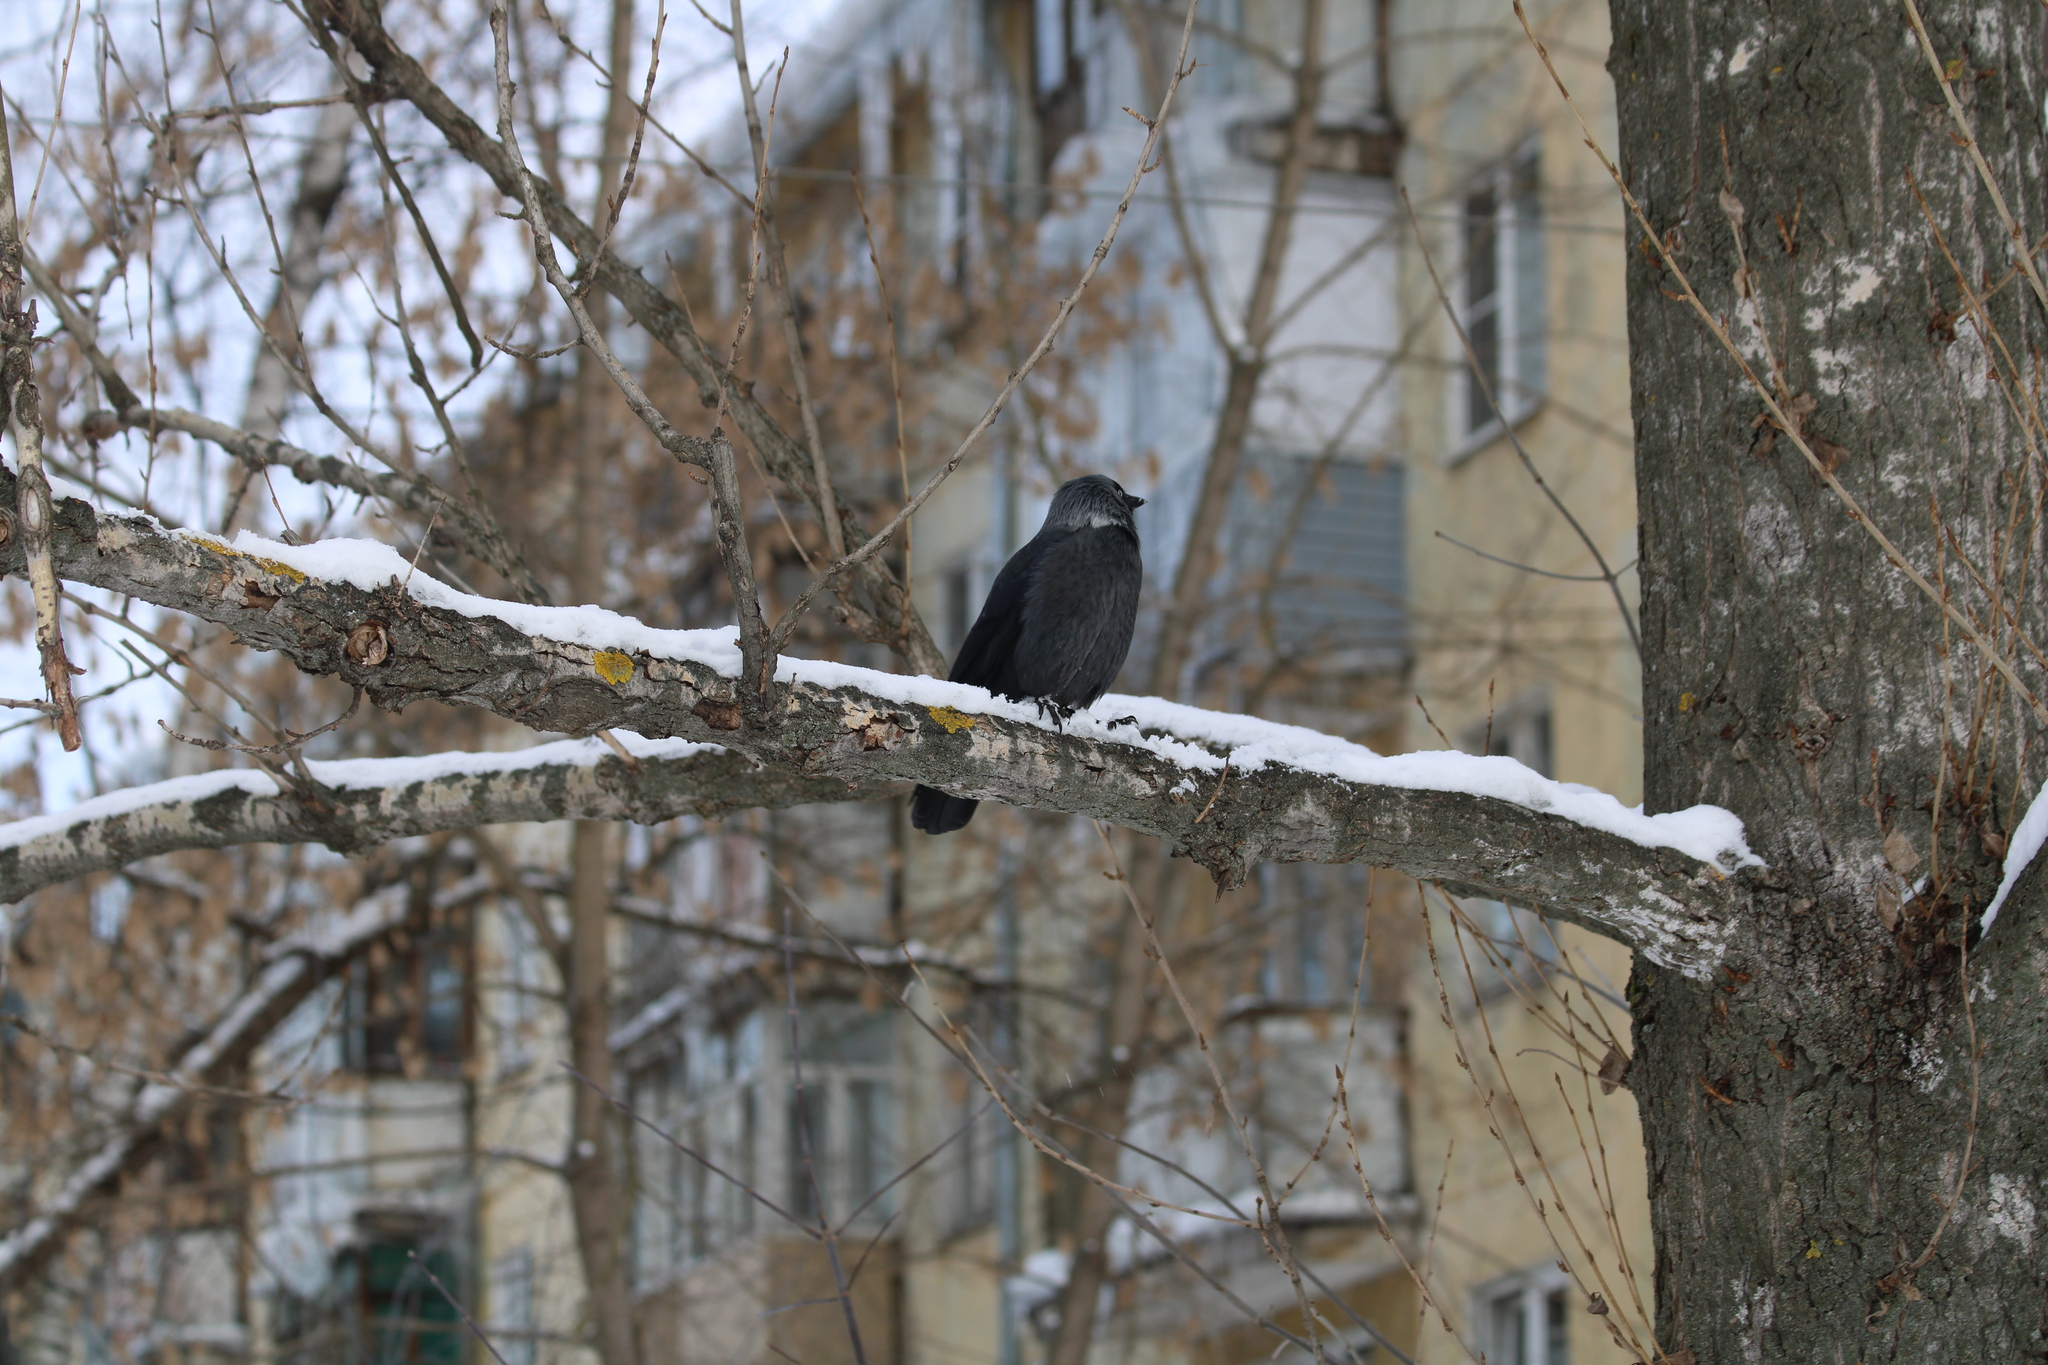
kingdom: Animalia
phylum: Chordata
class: Aves
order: Passeriformes
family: Corvidae
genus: Coloeus
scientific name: Coloeus monedula
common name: Western jackdaw
